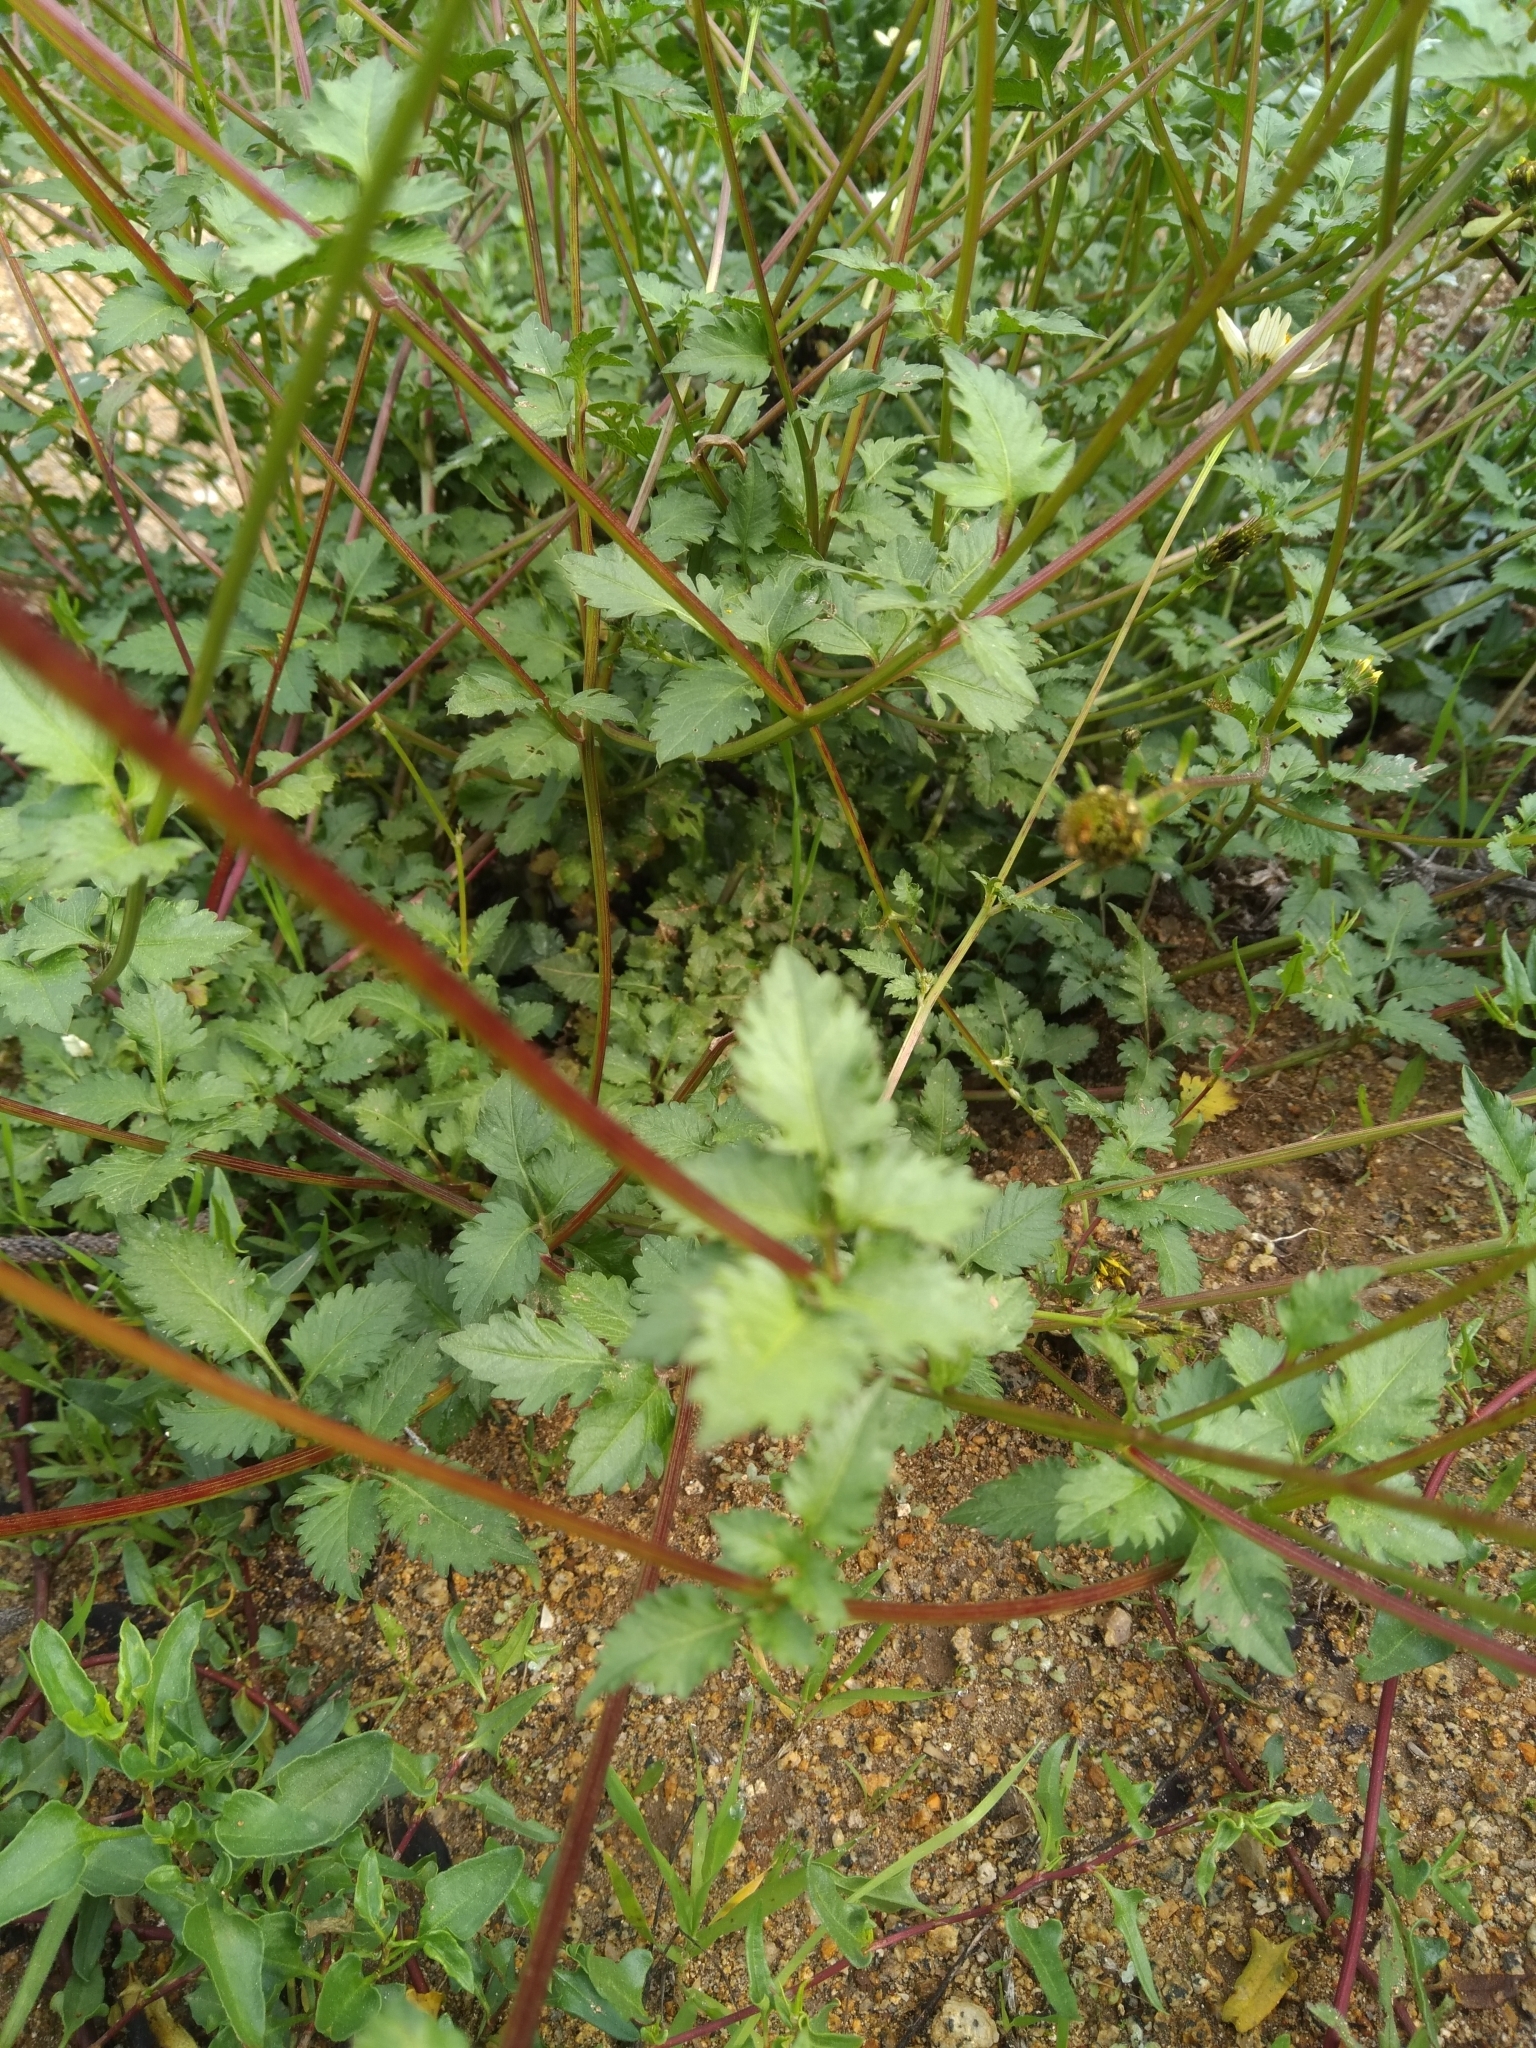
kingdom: Plantae
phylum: Tracheophyta
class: Magnoliopsida
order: Asterales
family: Asteraceae
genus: Bidens
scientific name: Bidens pilosa
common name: Black-jack
